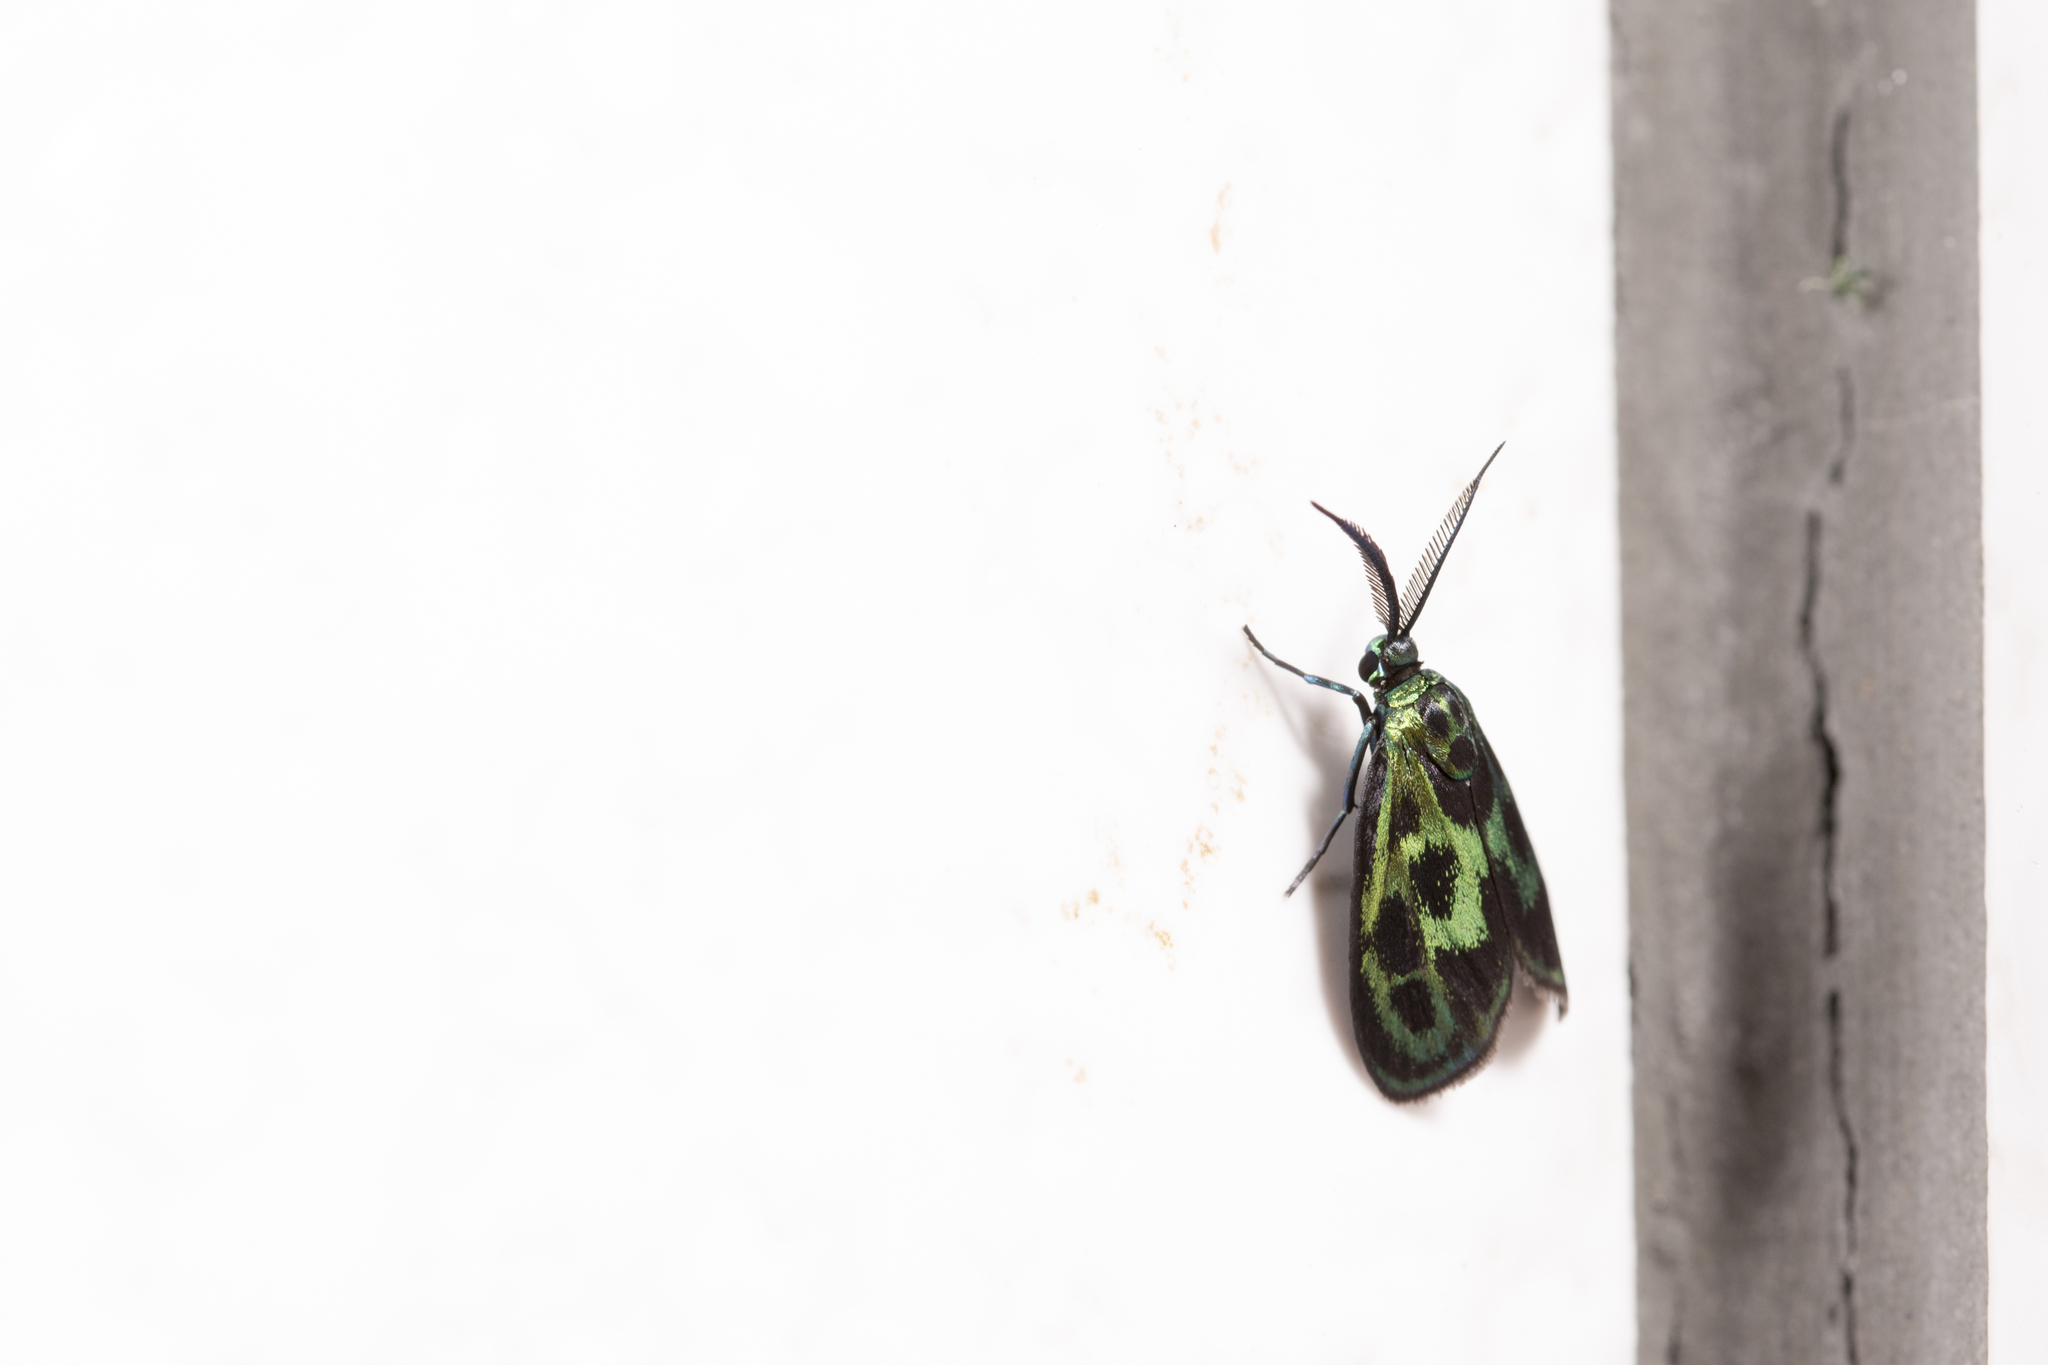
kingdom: Animalia
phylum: Arthropoda
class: Insecta
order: Lepidoptera
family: Zygaenidae
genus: Clelea
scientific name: Clelea simplicior
